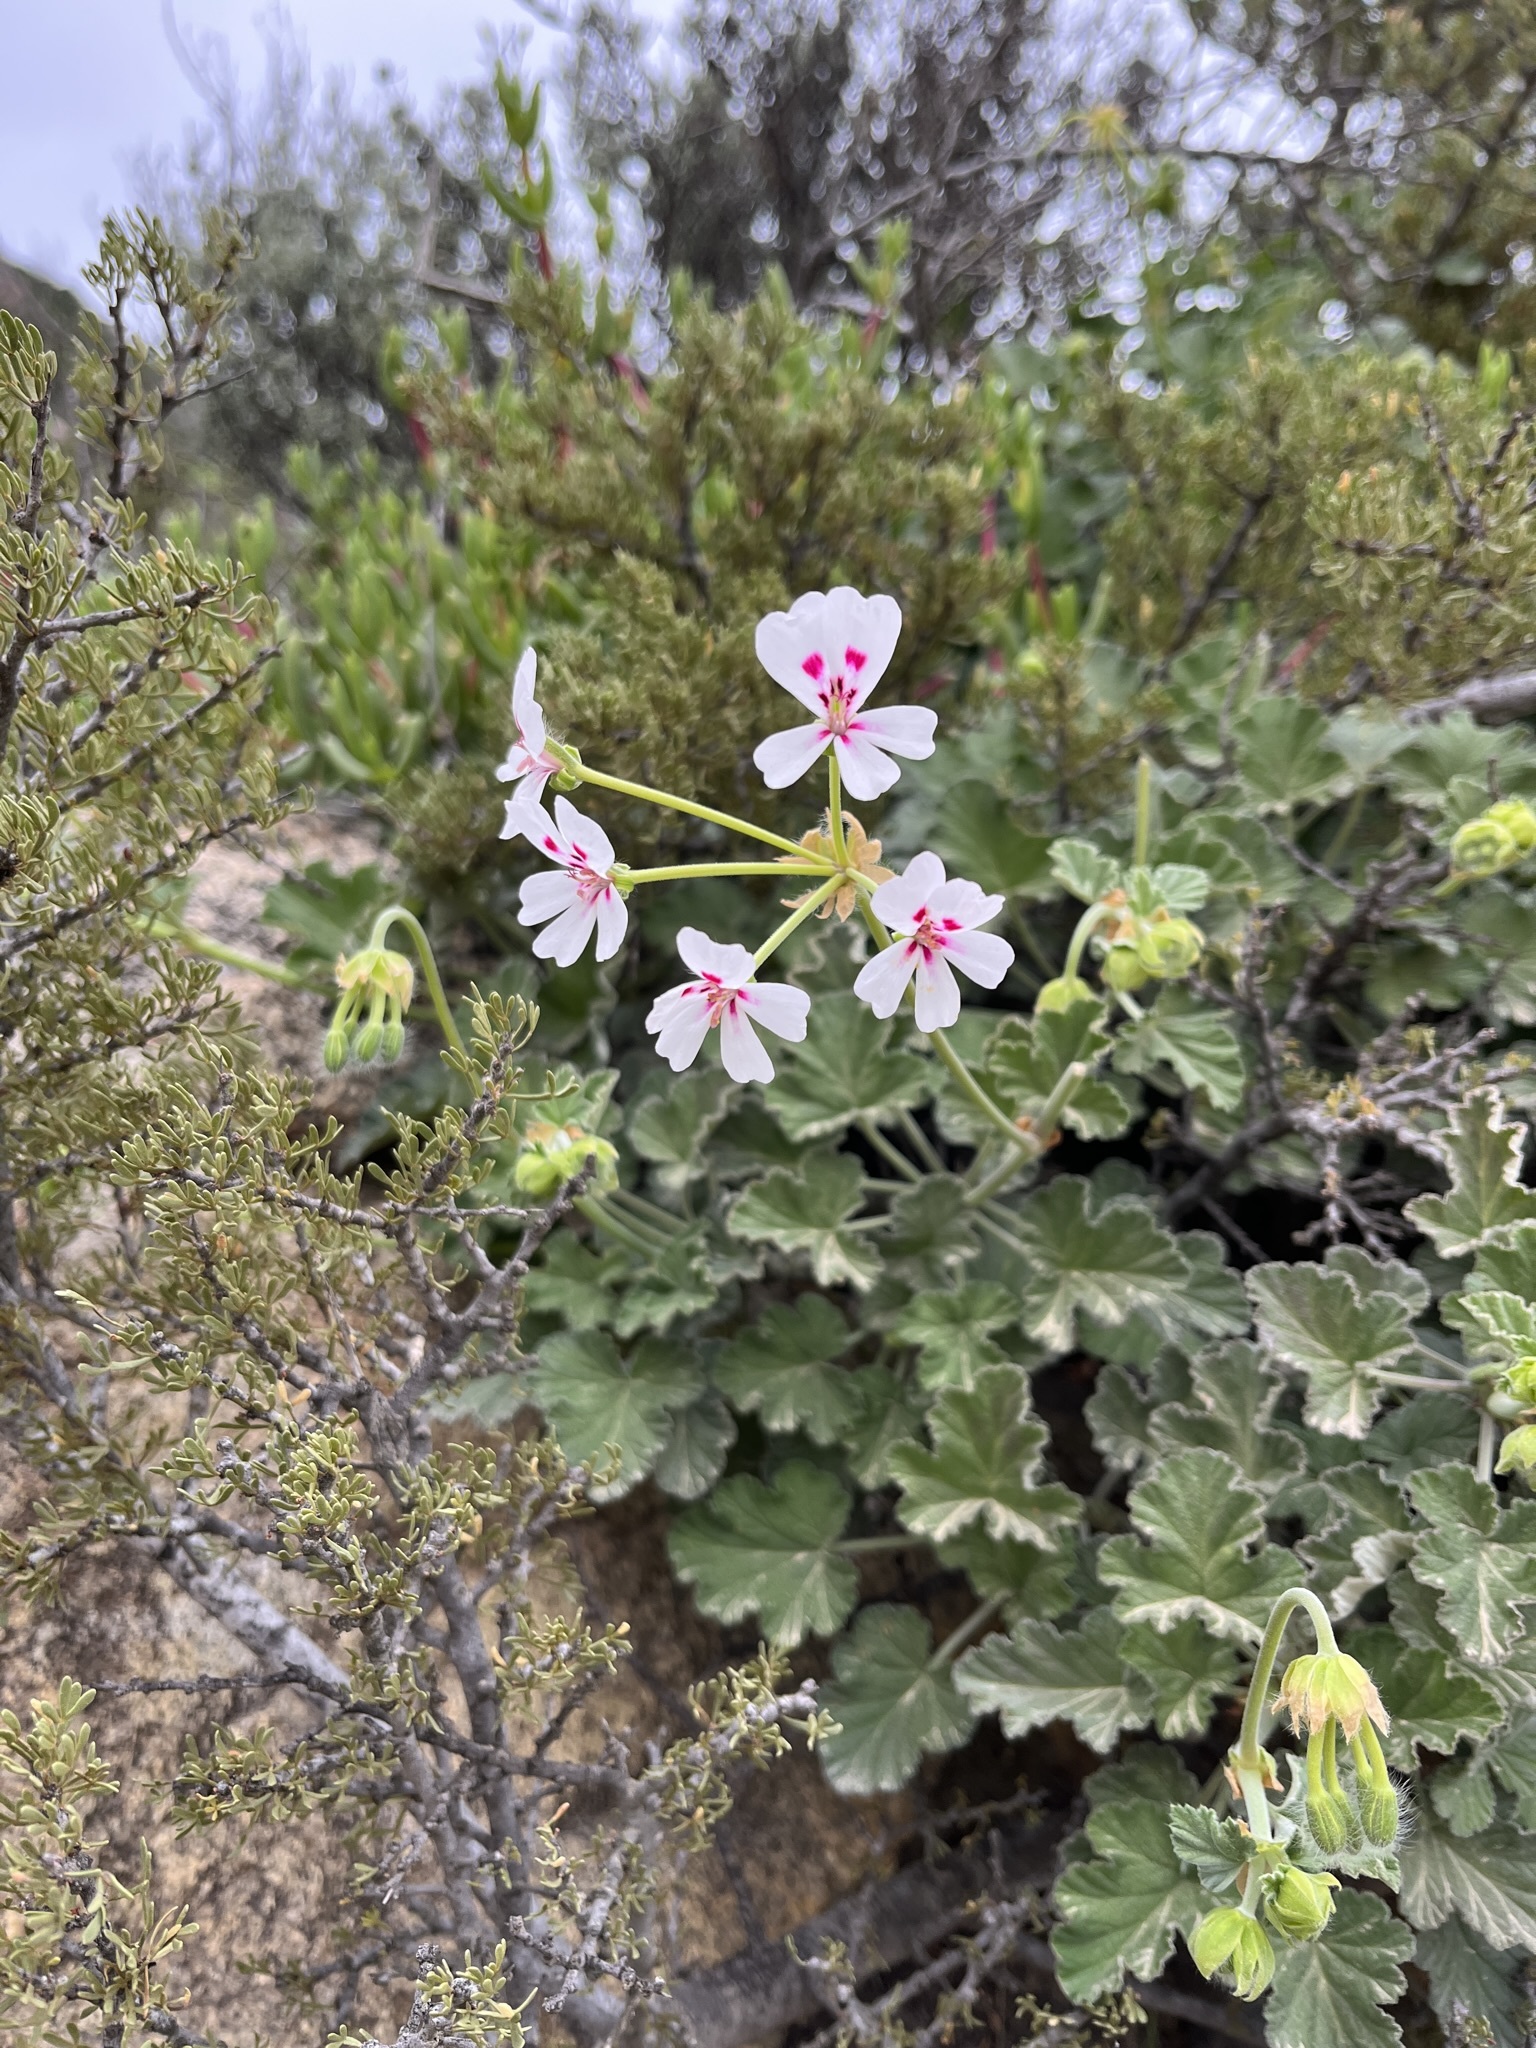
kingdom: Plantae
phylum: Tracheophyta
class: Magnoliopsida
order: Geraniales
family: Geraniaceae
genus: Pelargonium
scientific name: Pelargonium echinatum
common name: Cactus geranium
